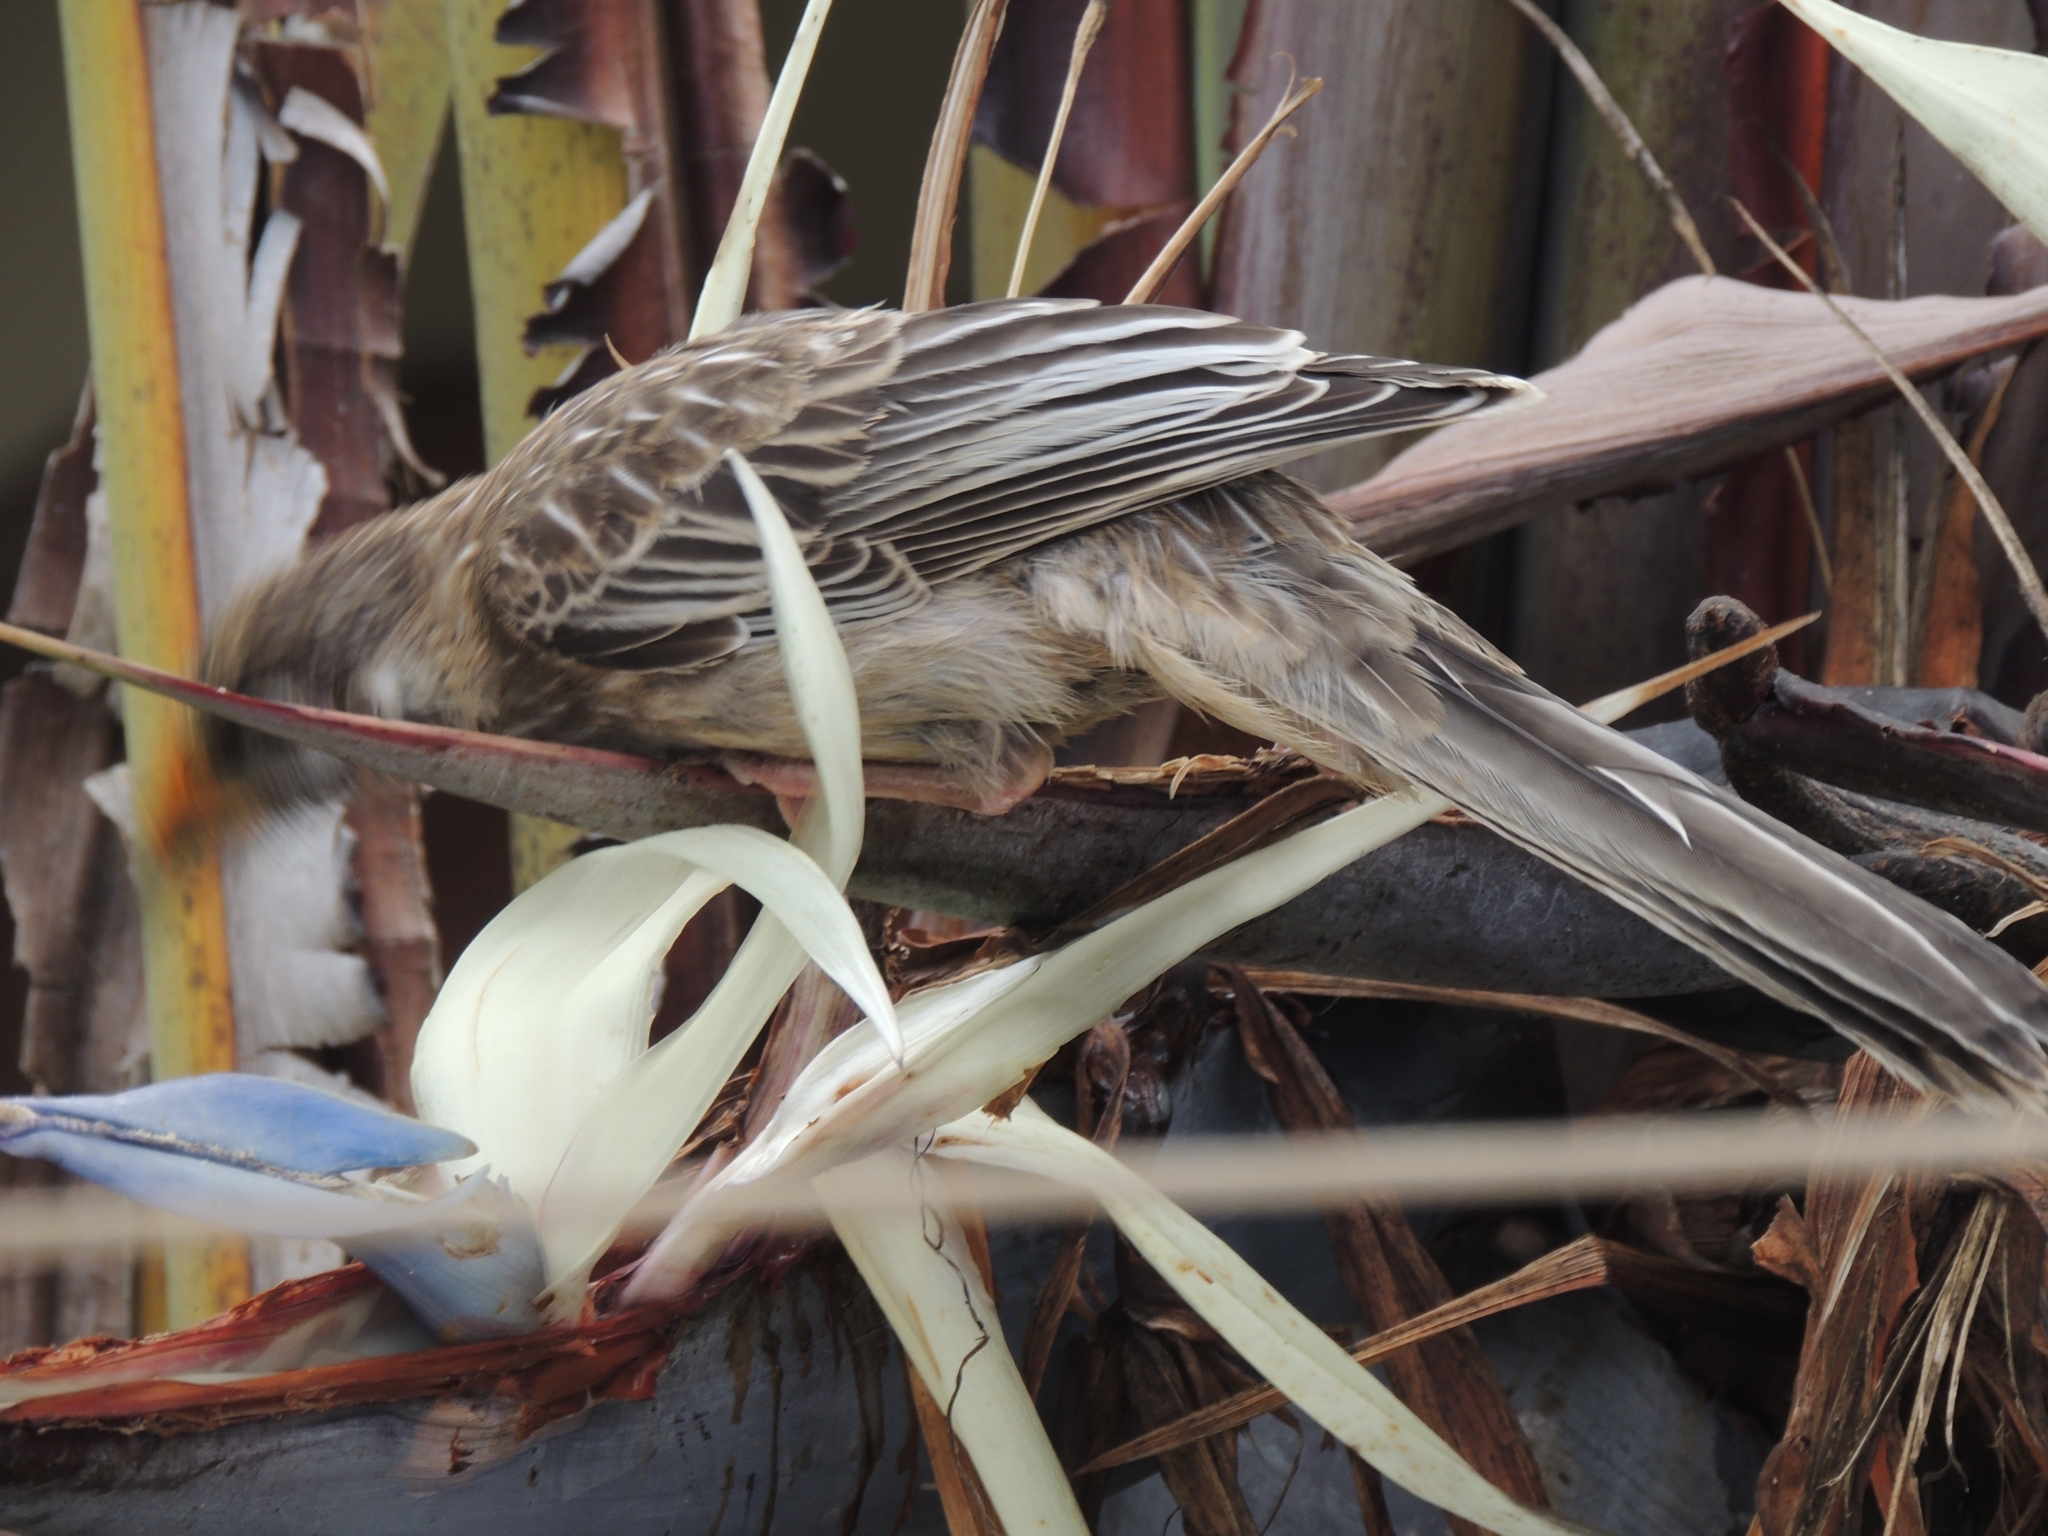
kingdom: Animalia
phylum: Chordata
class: Aves
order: Passeriformes
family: Meliphagidae
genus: Anthochaera
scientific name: Anthochaera carunculata
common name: Red wattlebird
